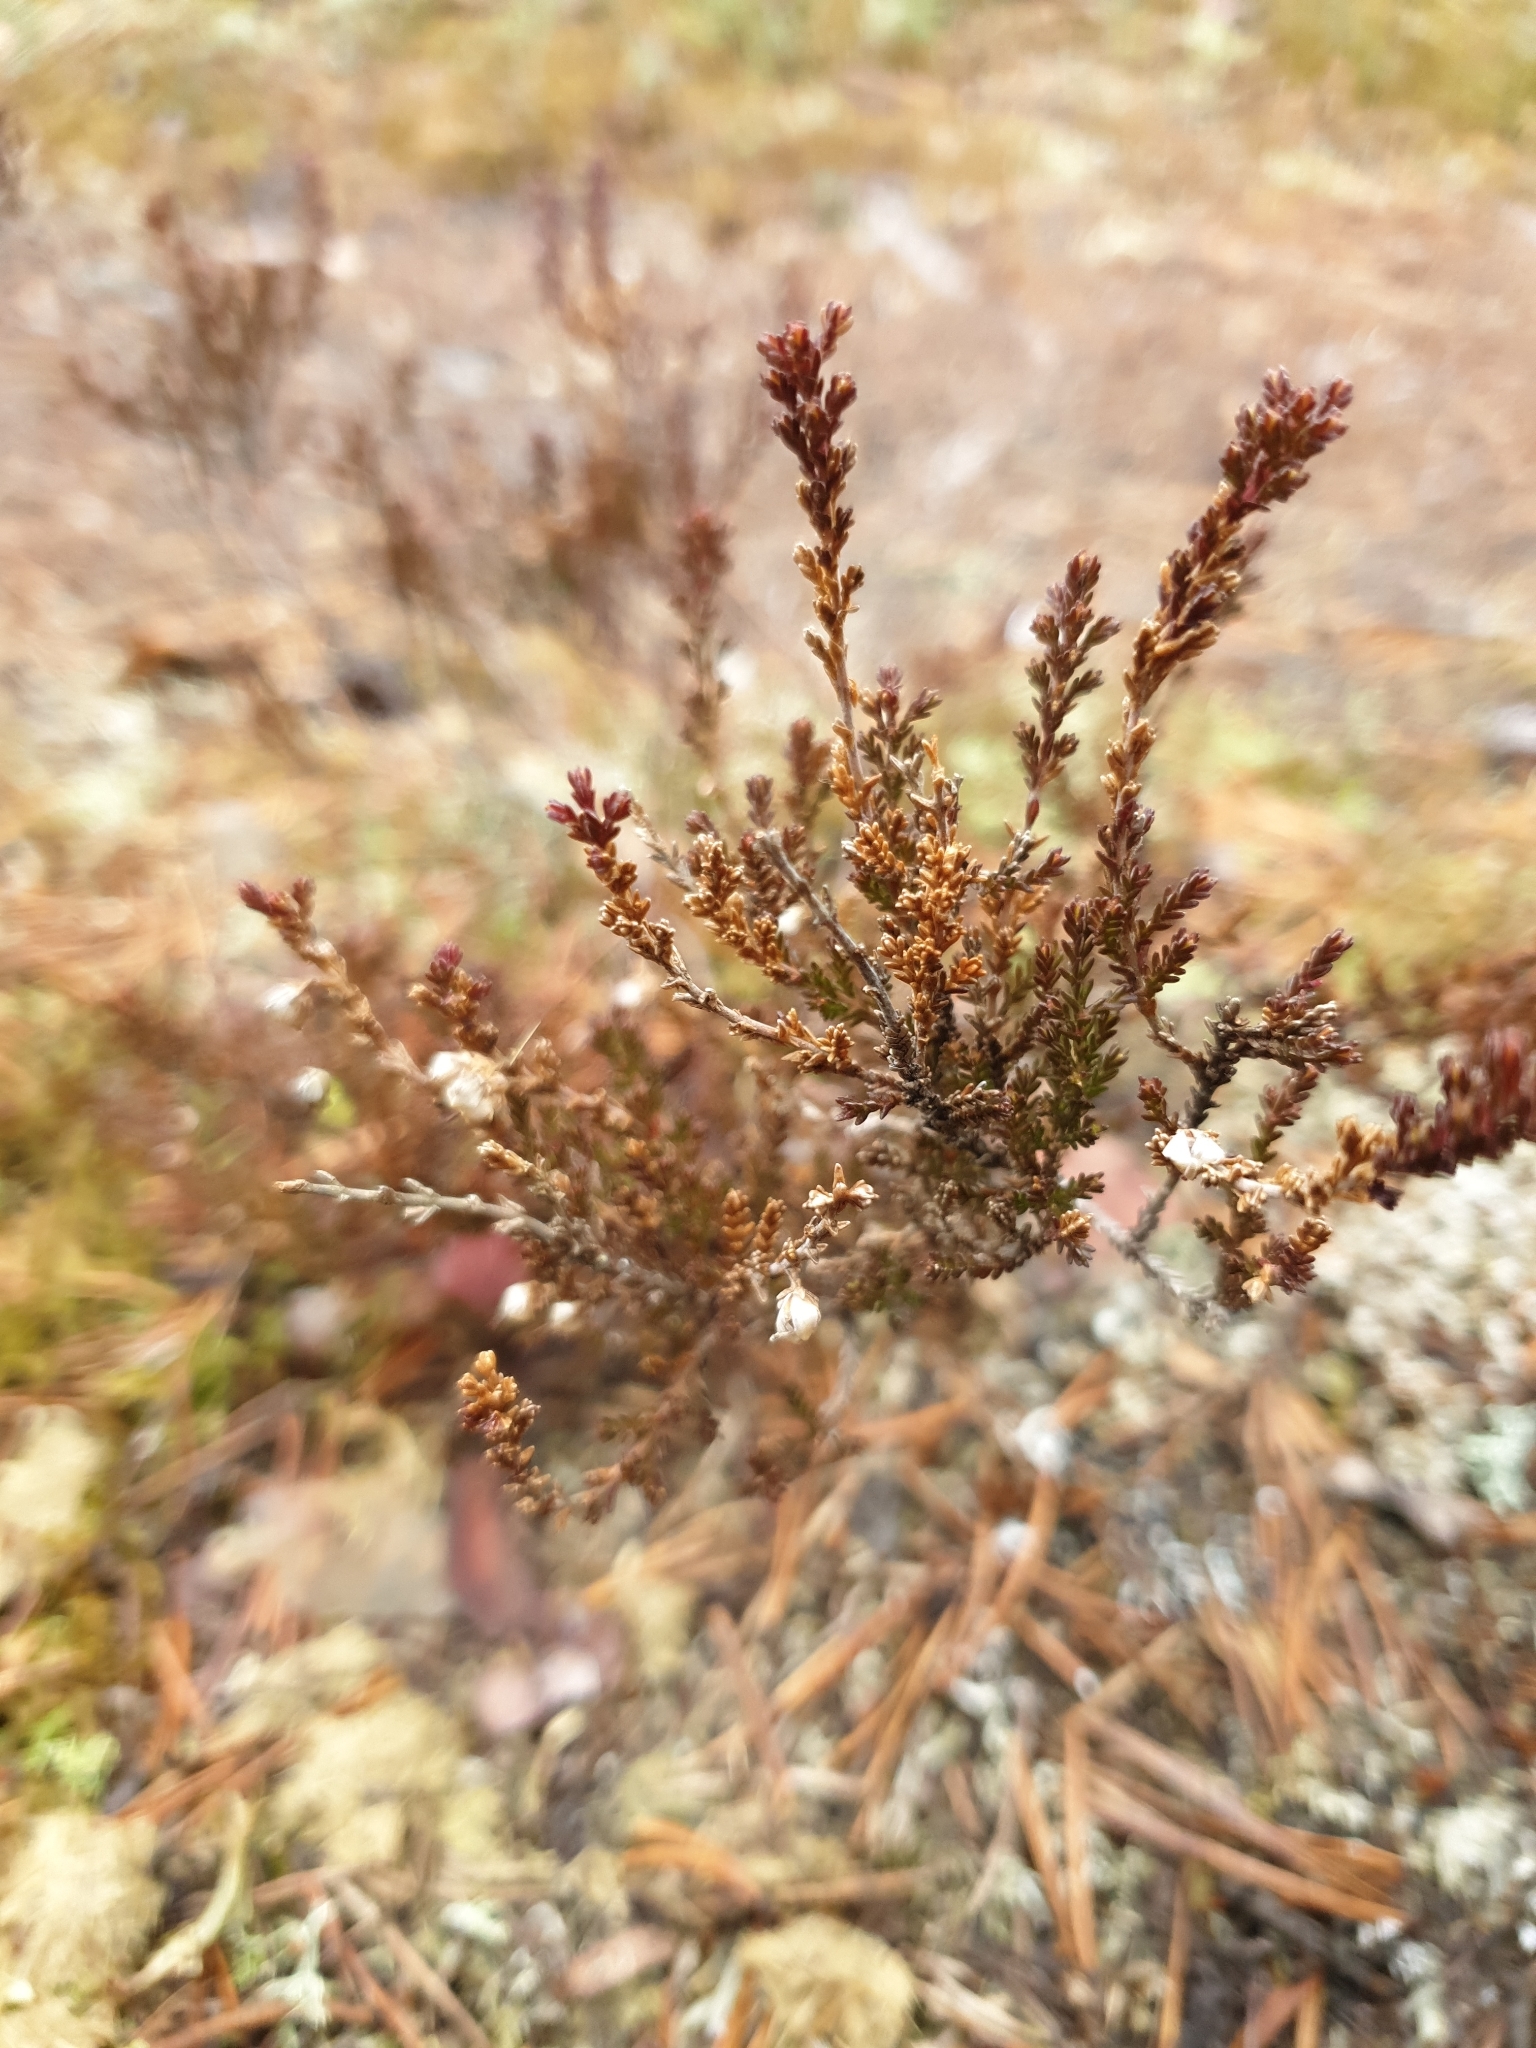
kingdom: Plantae
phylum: Tracheophyta
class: Magnoliopsida
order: Ericales
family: Ericaceae
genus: Calluna
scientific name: Calluna vulgaris
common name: Heather
